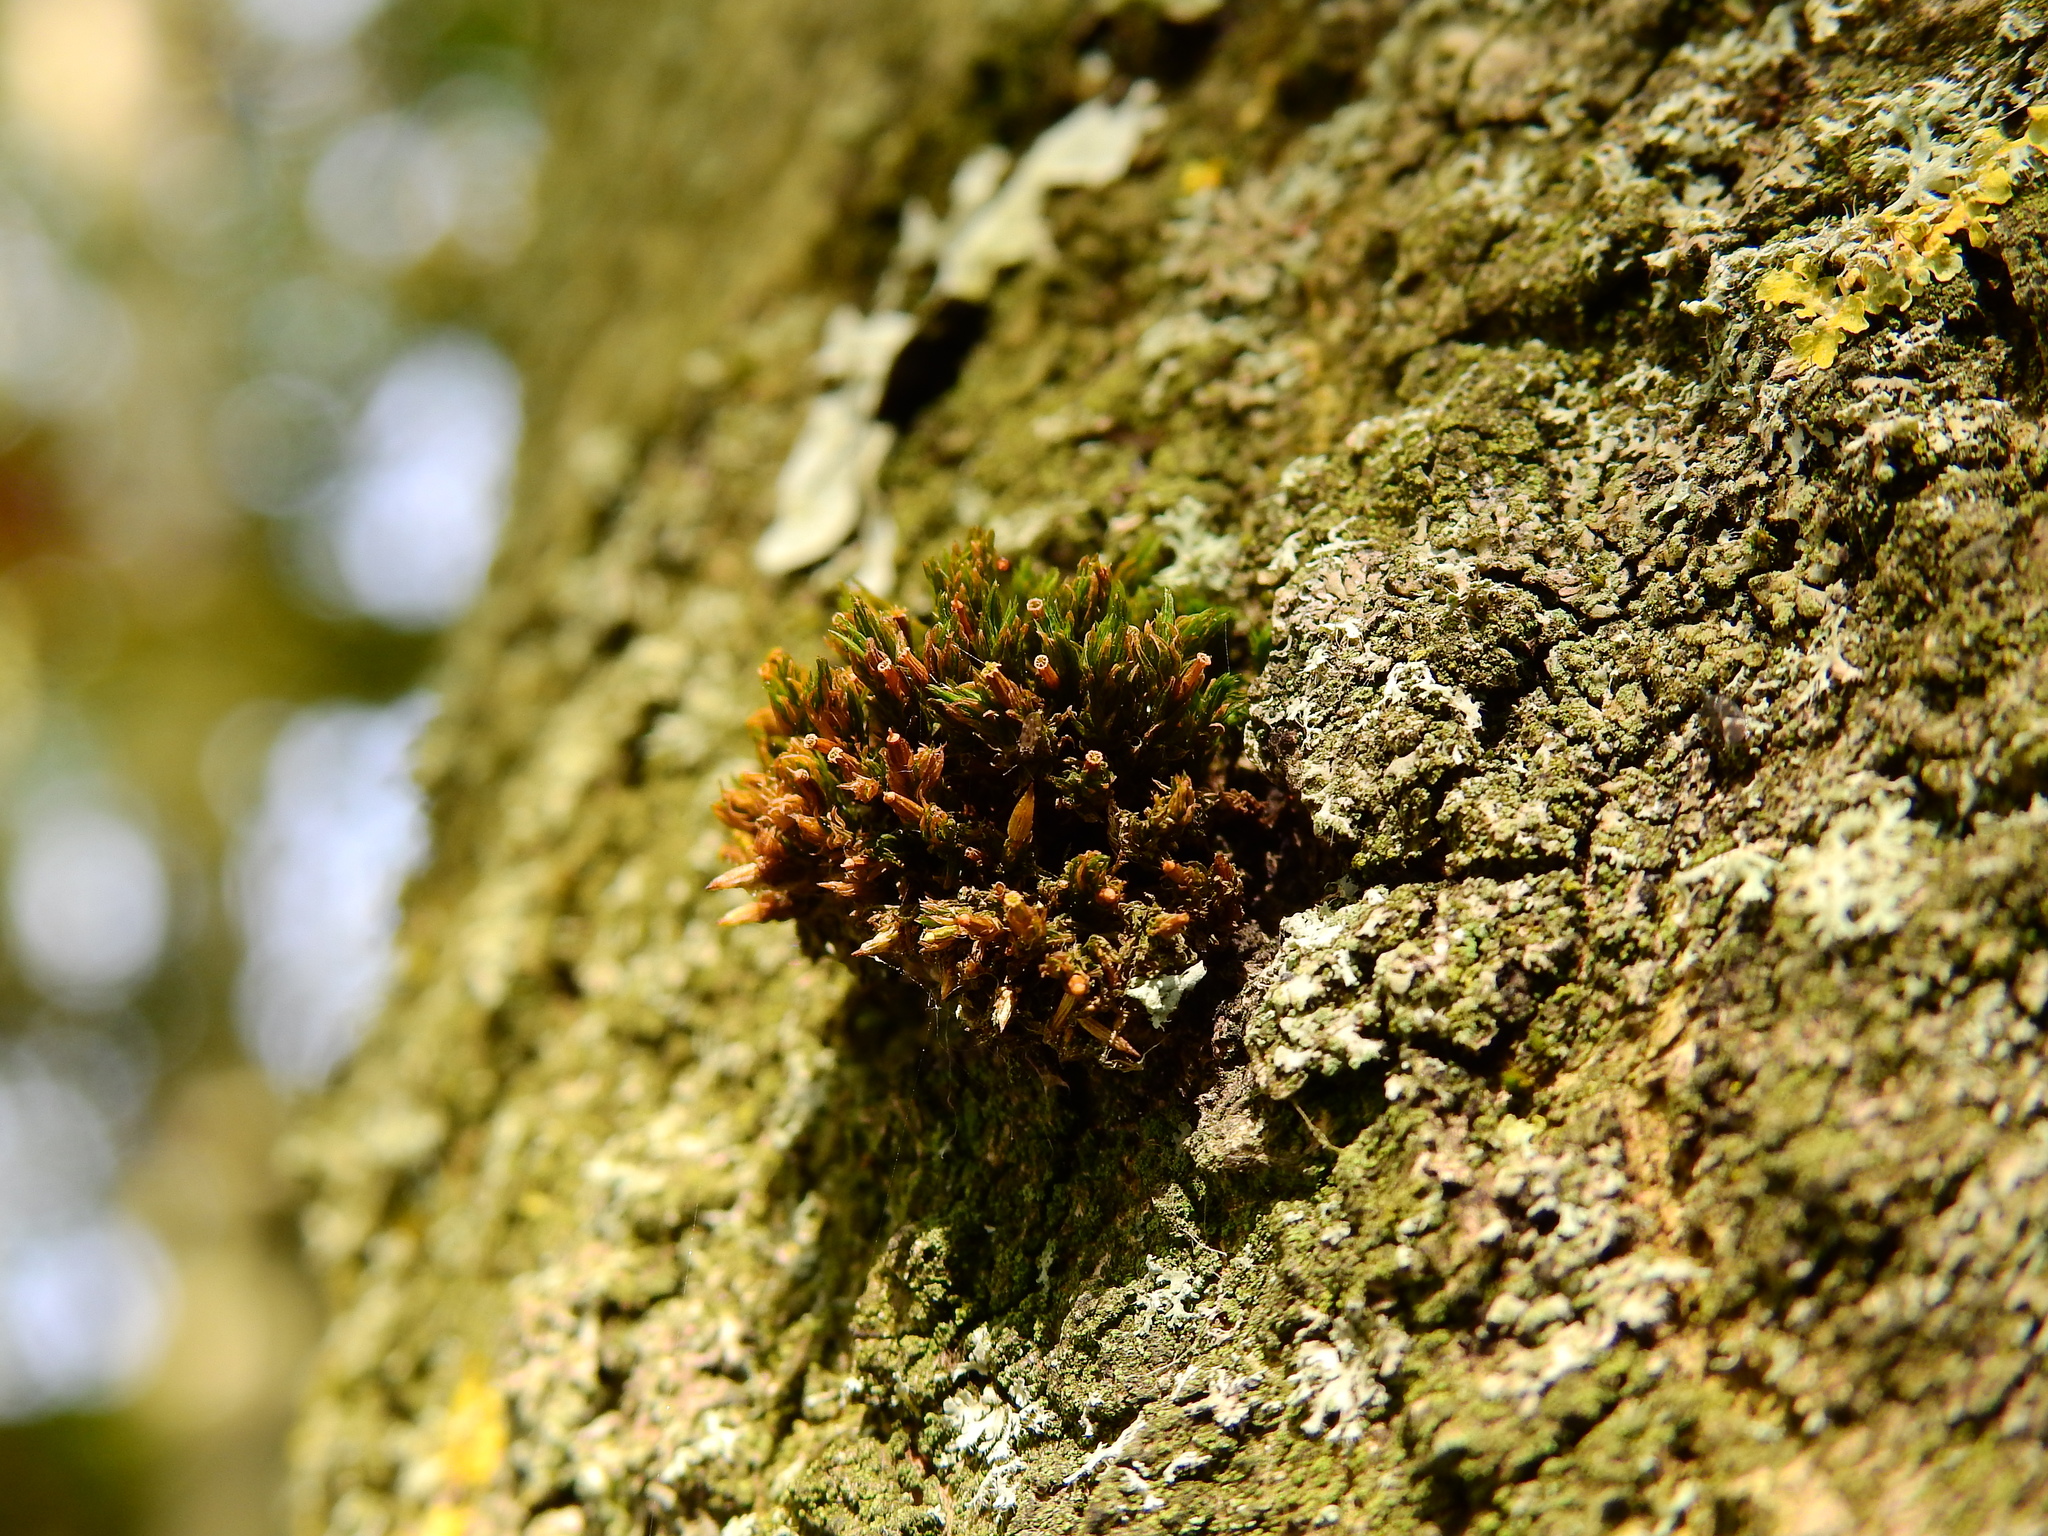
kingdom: Plantae
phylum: Bryophyta
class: Bryopsida
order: Orthotrichales
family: Orthotrichaceae
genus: Lewinskya
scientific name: Lewinskya affinis
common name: Wood bristle-moss
